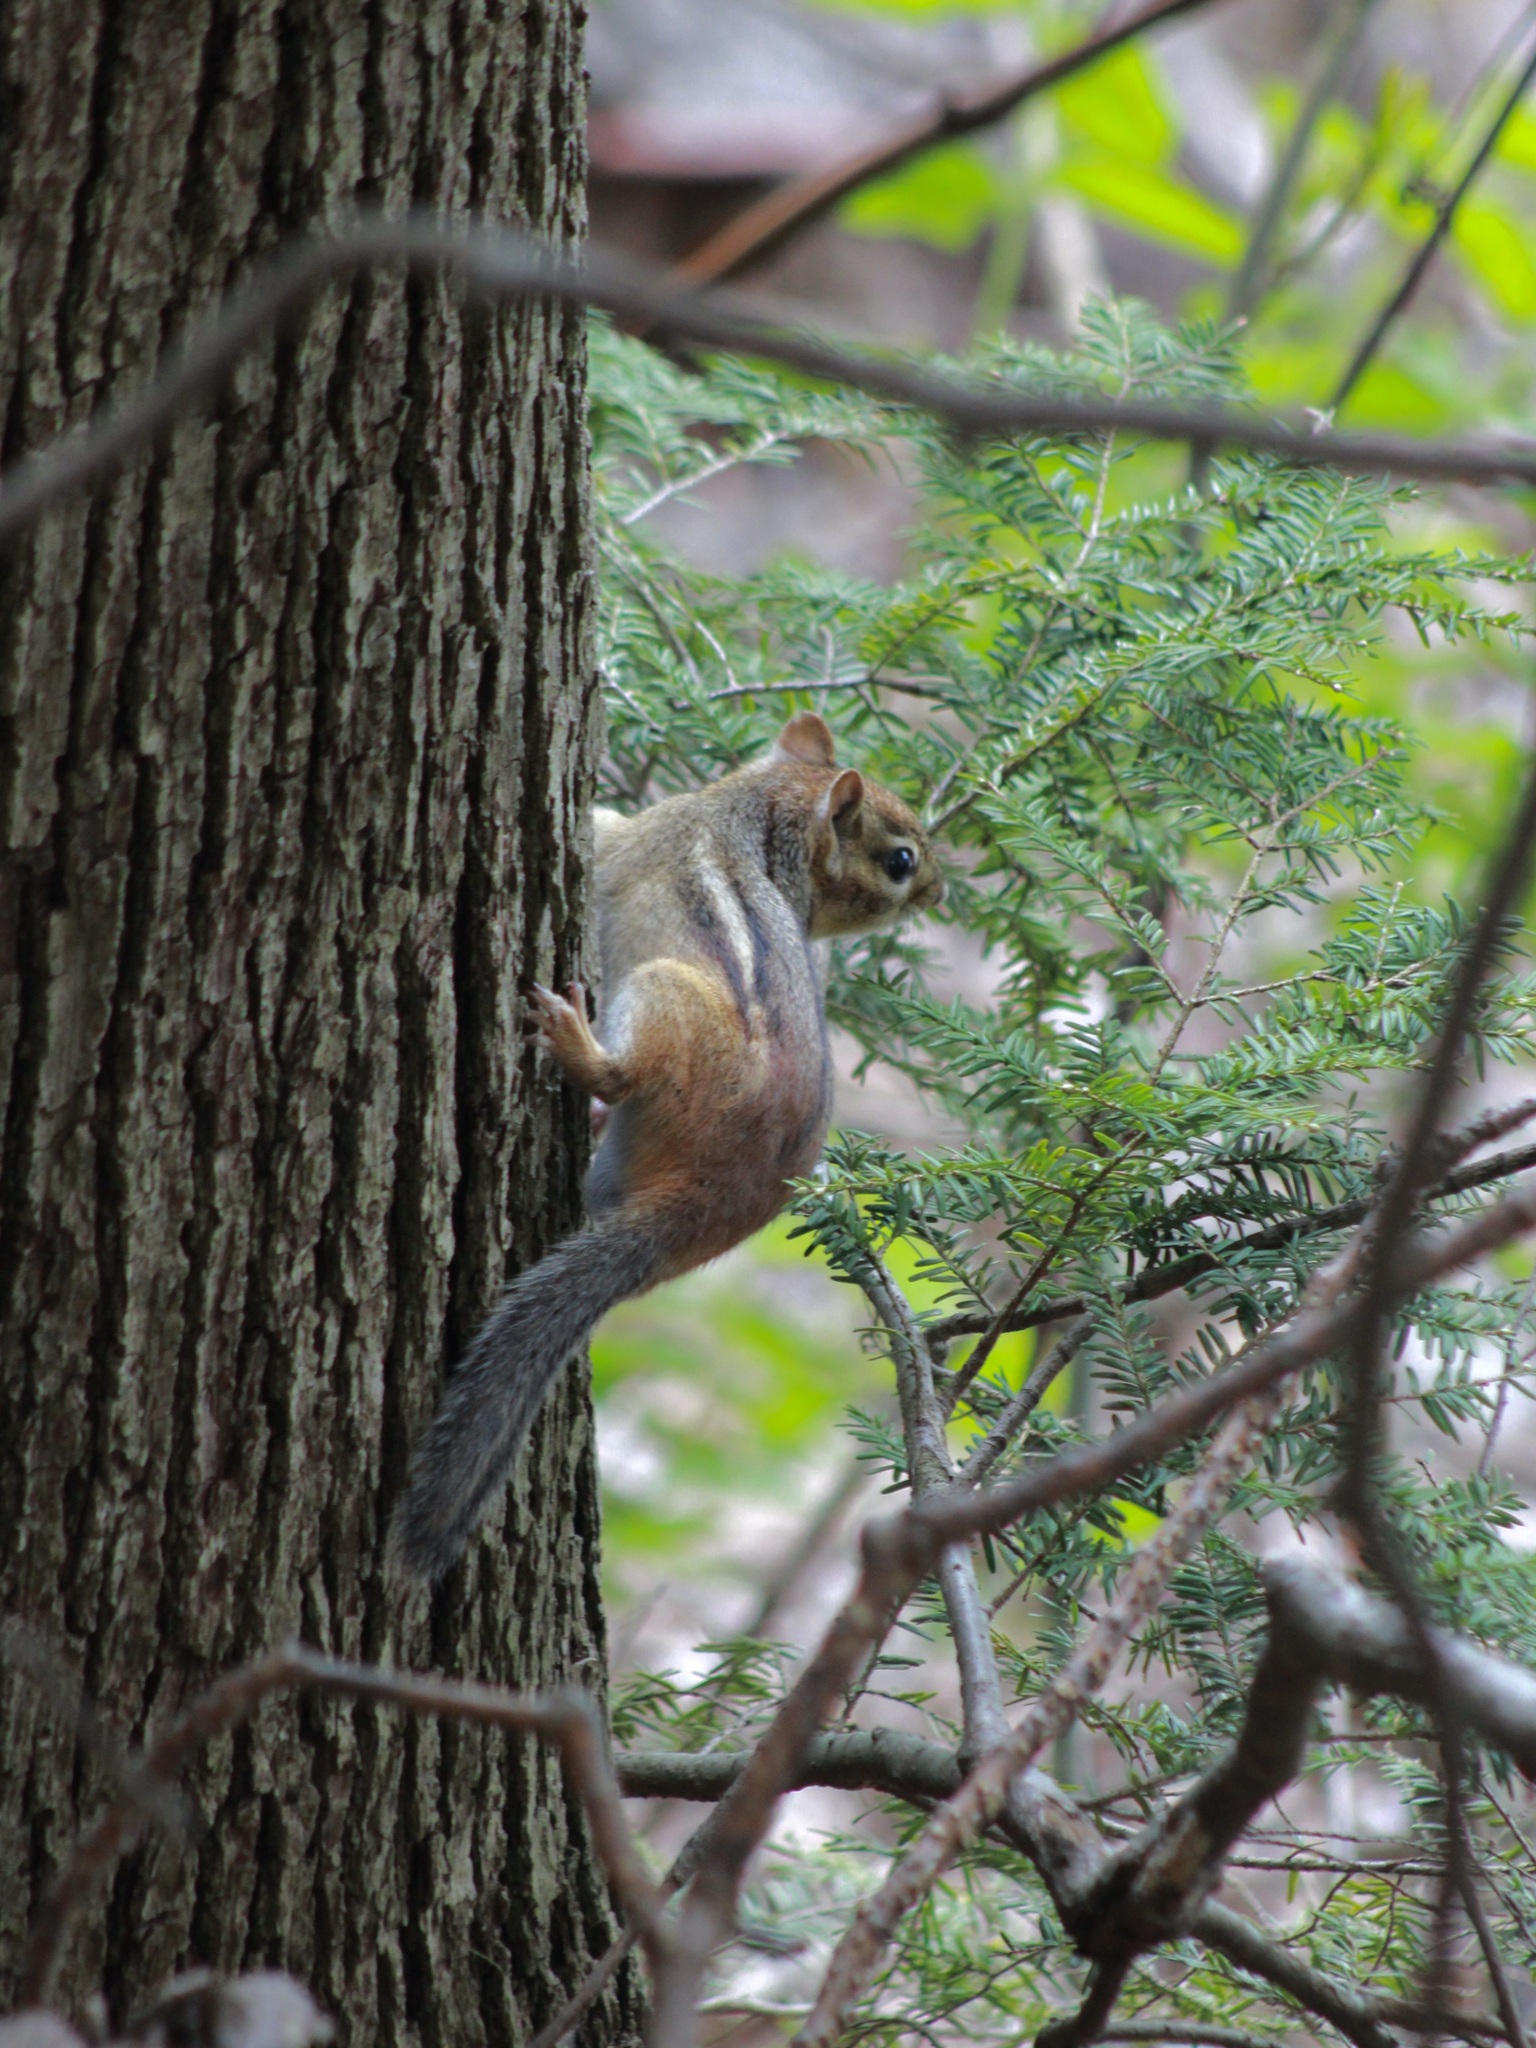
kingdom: Animalia
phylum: Chordata
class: Mammalia
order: Rodentia
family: Sciuridae
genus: Tamias
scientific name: Tamias striatus
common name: Eastern chipmunk
